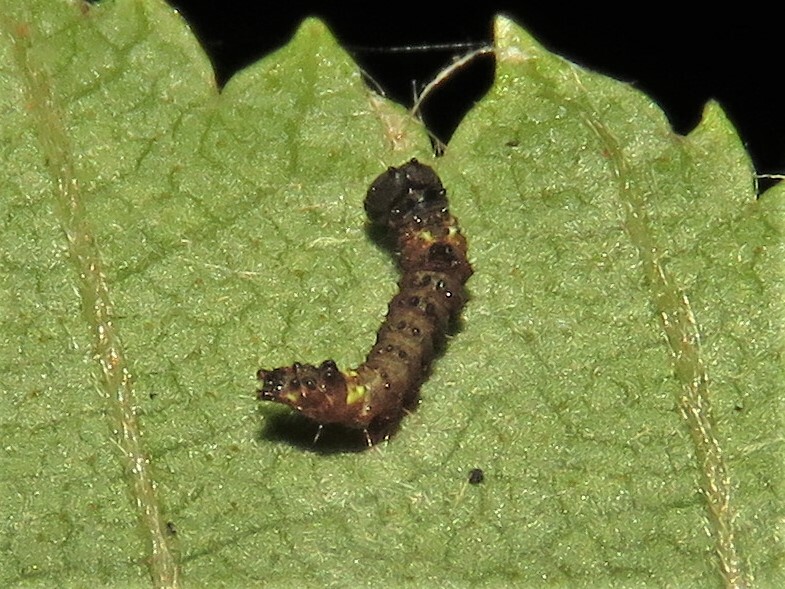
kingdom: Animalia
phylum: Arthropoda
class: Insecta
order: Lepidoptera
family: Notodontidae
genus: Schizura
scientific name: Schizura
